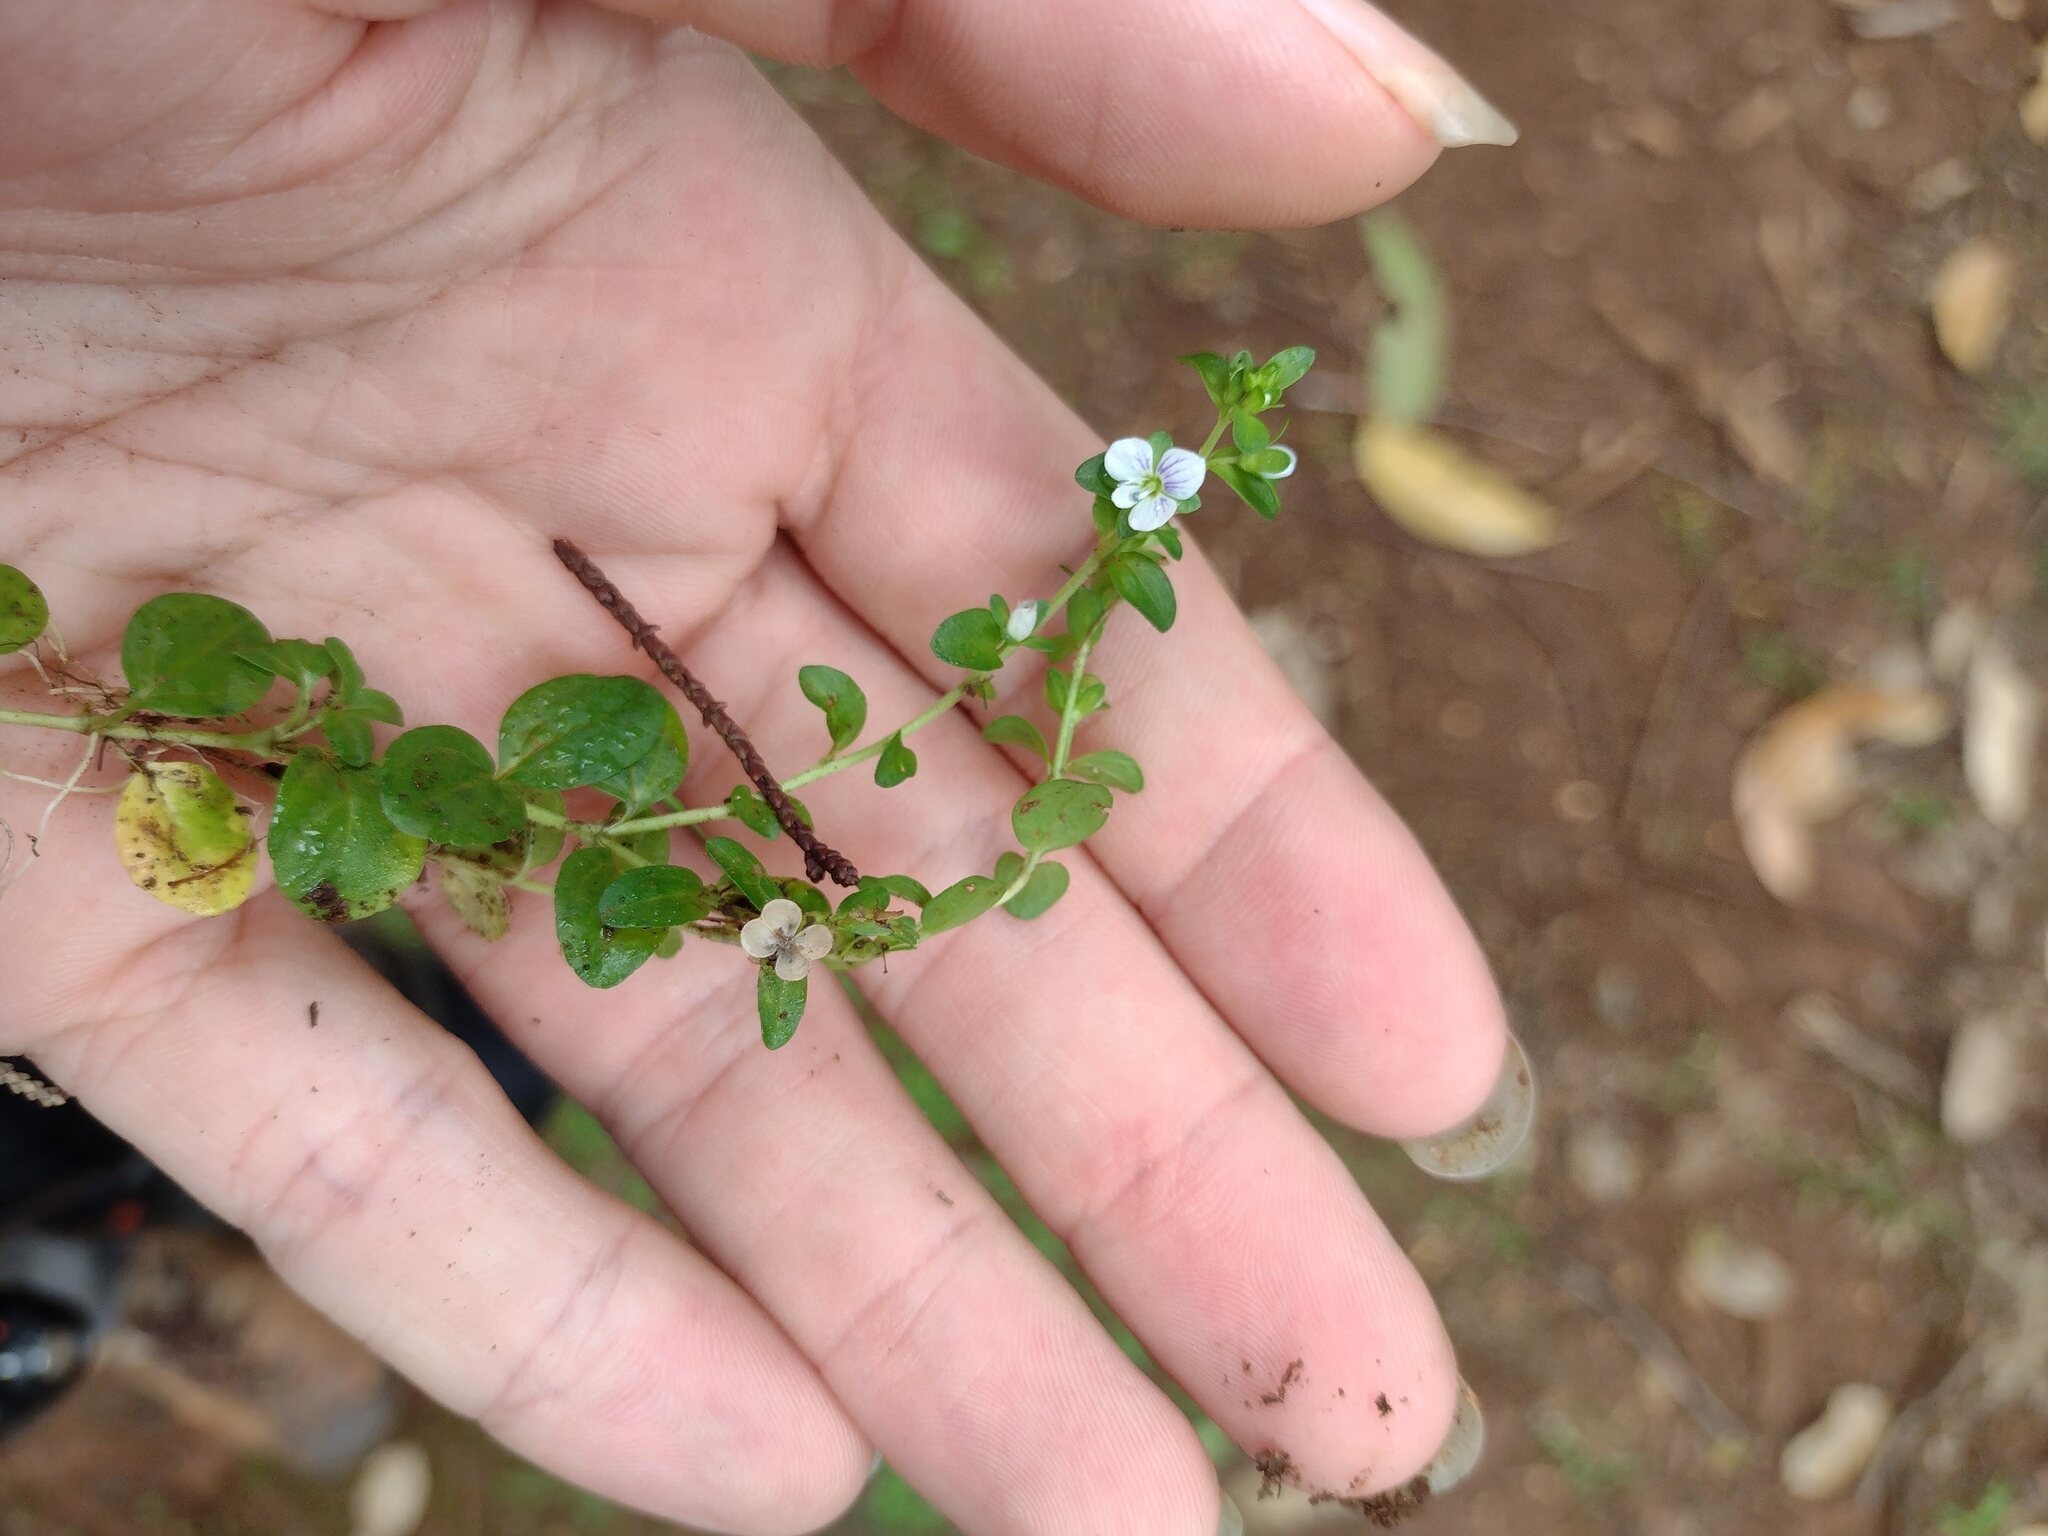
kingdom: Plantae
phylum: Tracheophyta
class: Magnoliopsida
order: Lamiales
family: Plantaginaceae
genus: Veronica
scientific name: Veronica serpyllifolia
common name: Thyme-leaved speedwell
